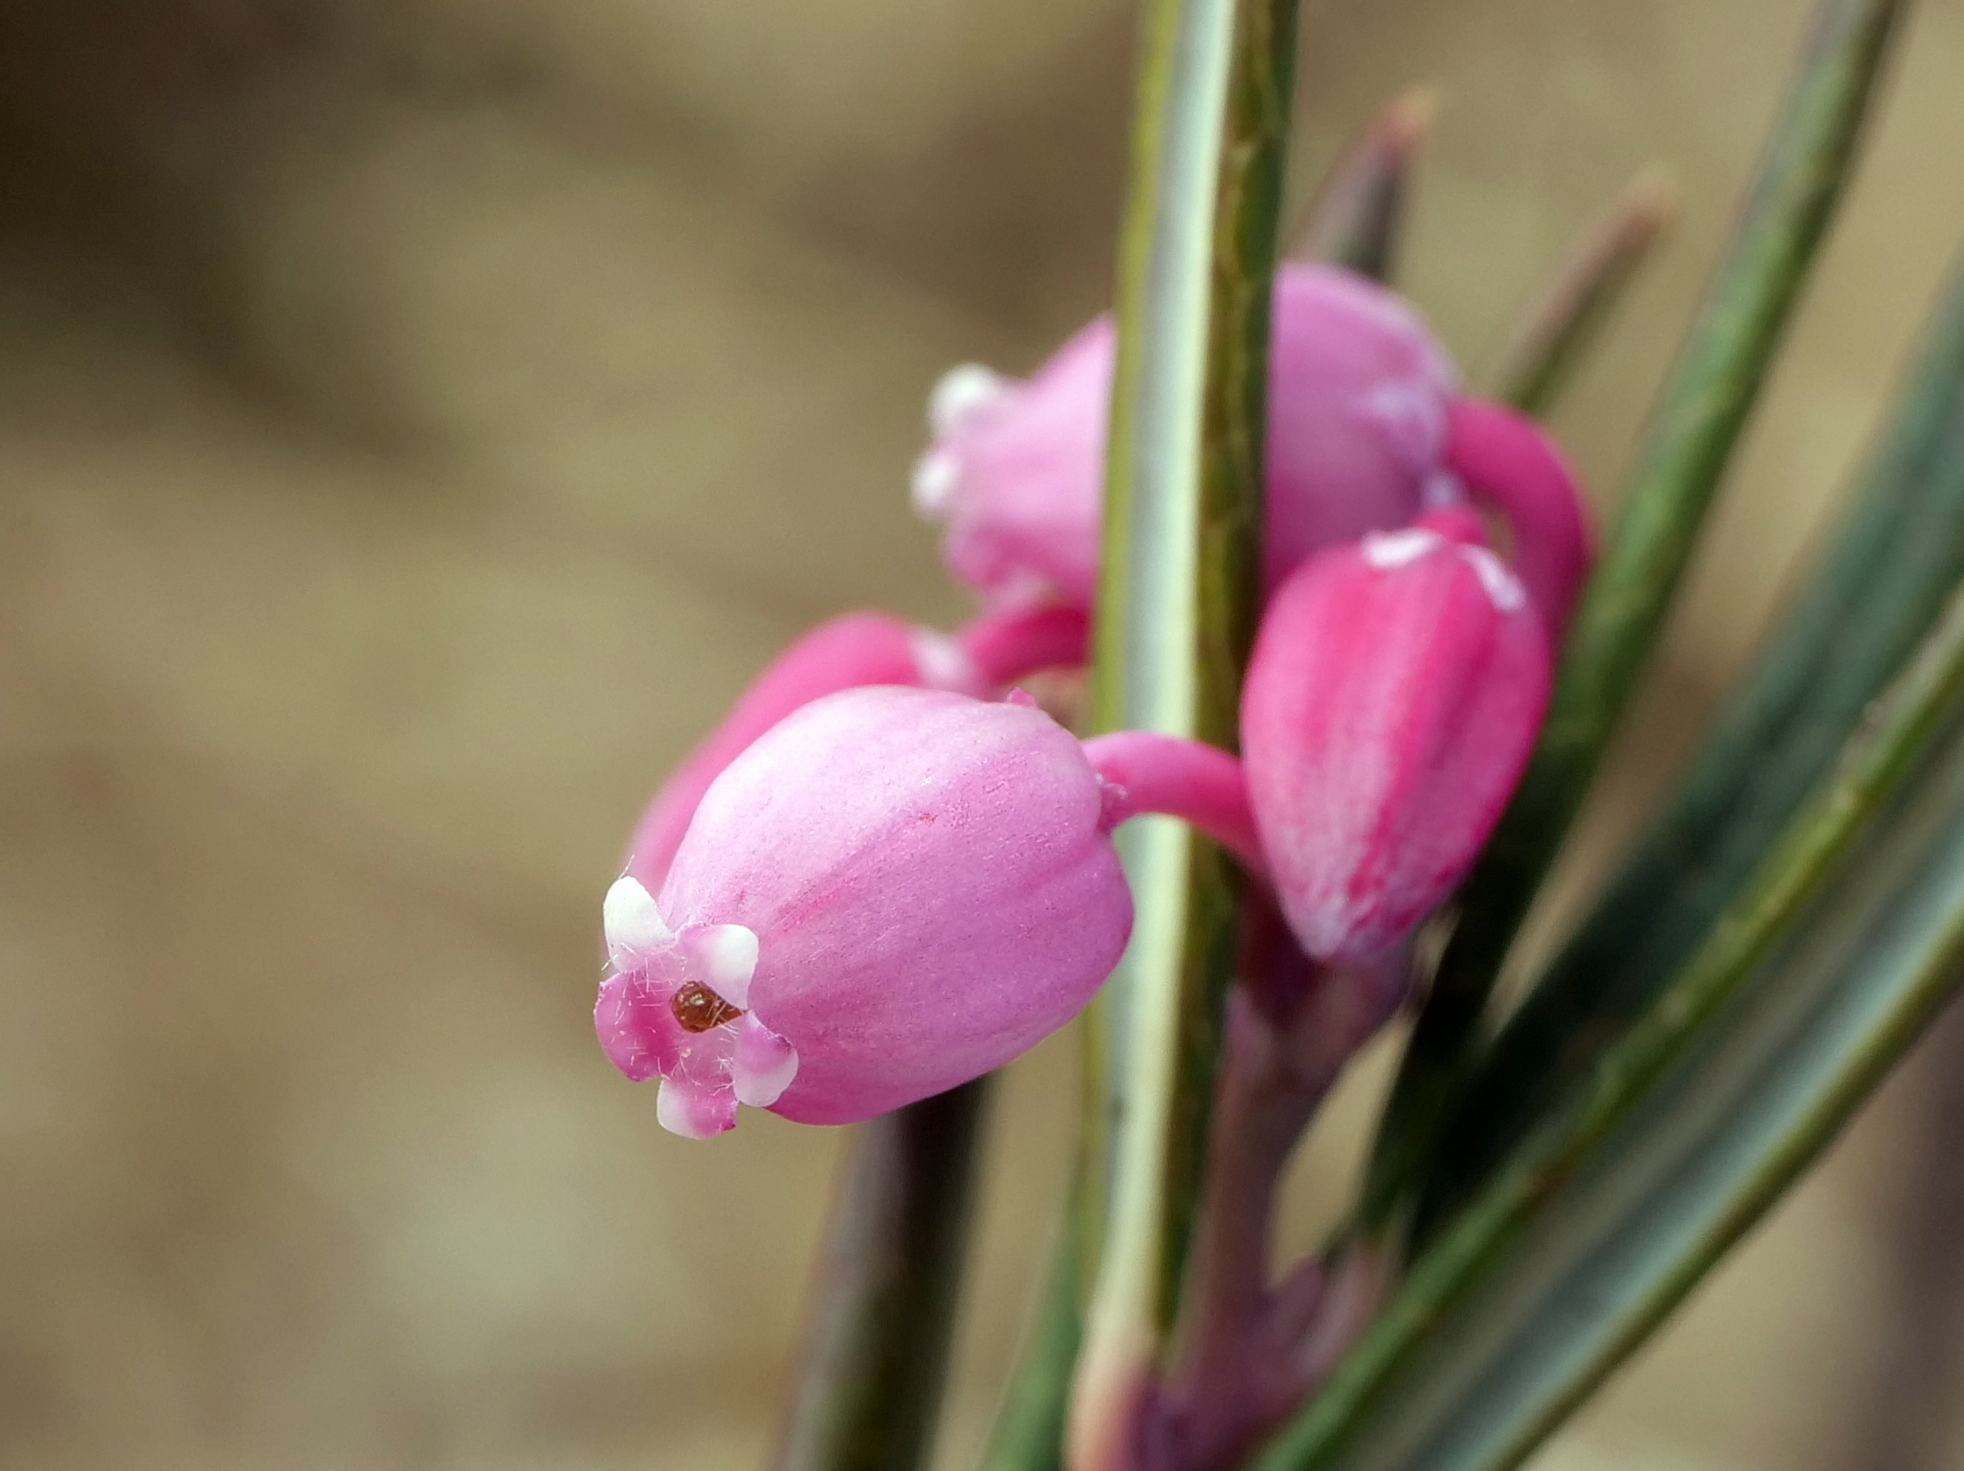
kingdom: Plantae
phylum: Tracheophyta
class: Magnoliopsida
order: Ericales
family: Ericaceae
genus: Andromeda
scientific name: Andromeda polifolia
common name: Bog-rosemary
